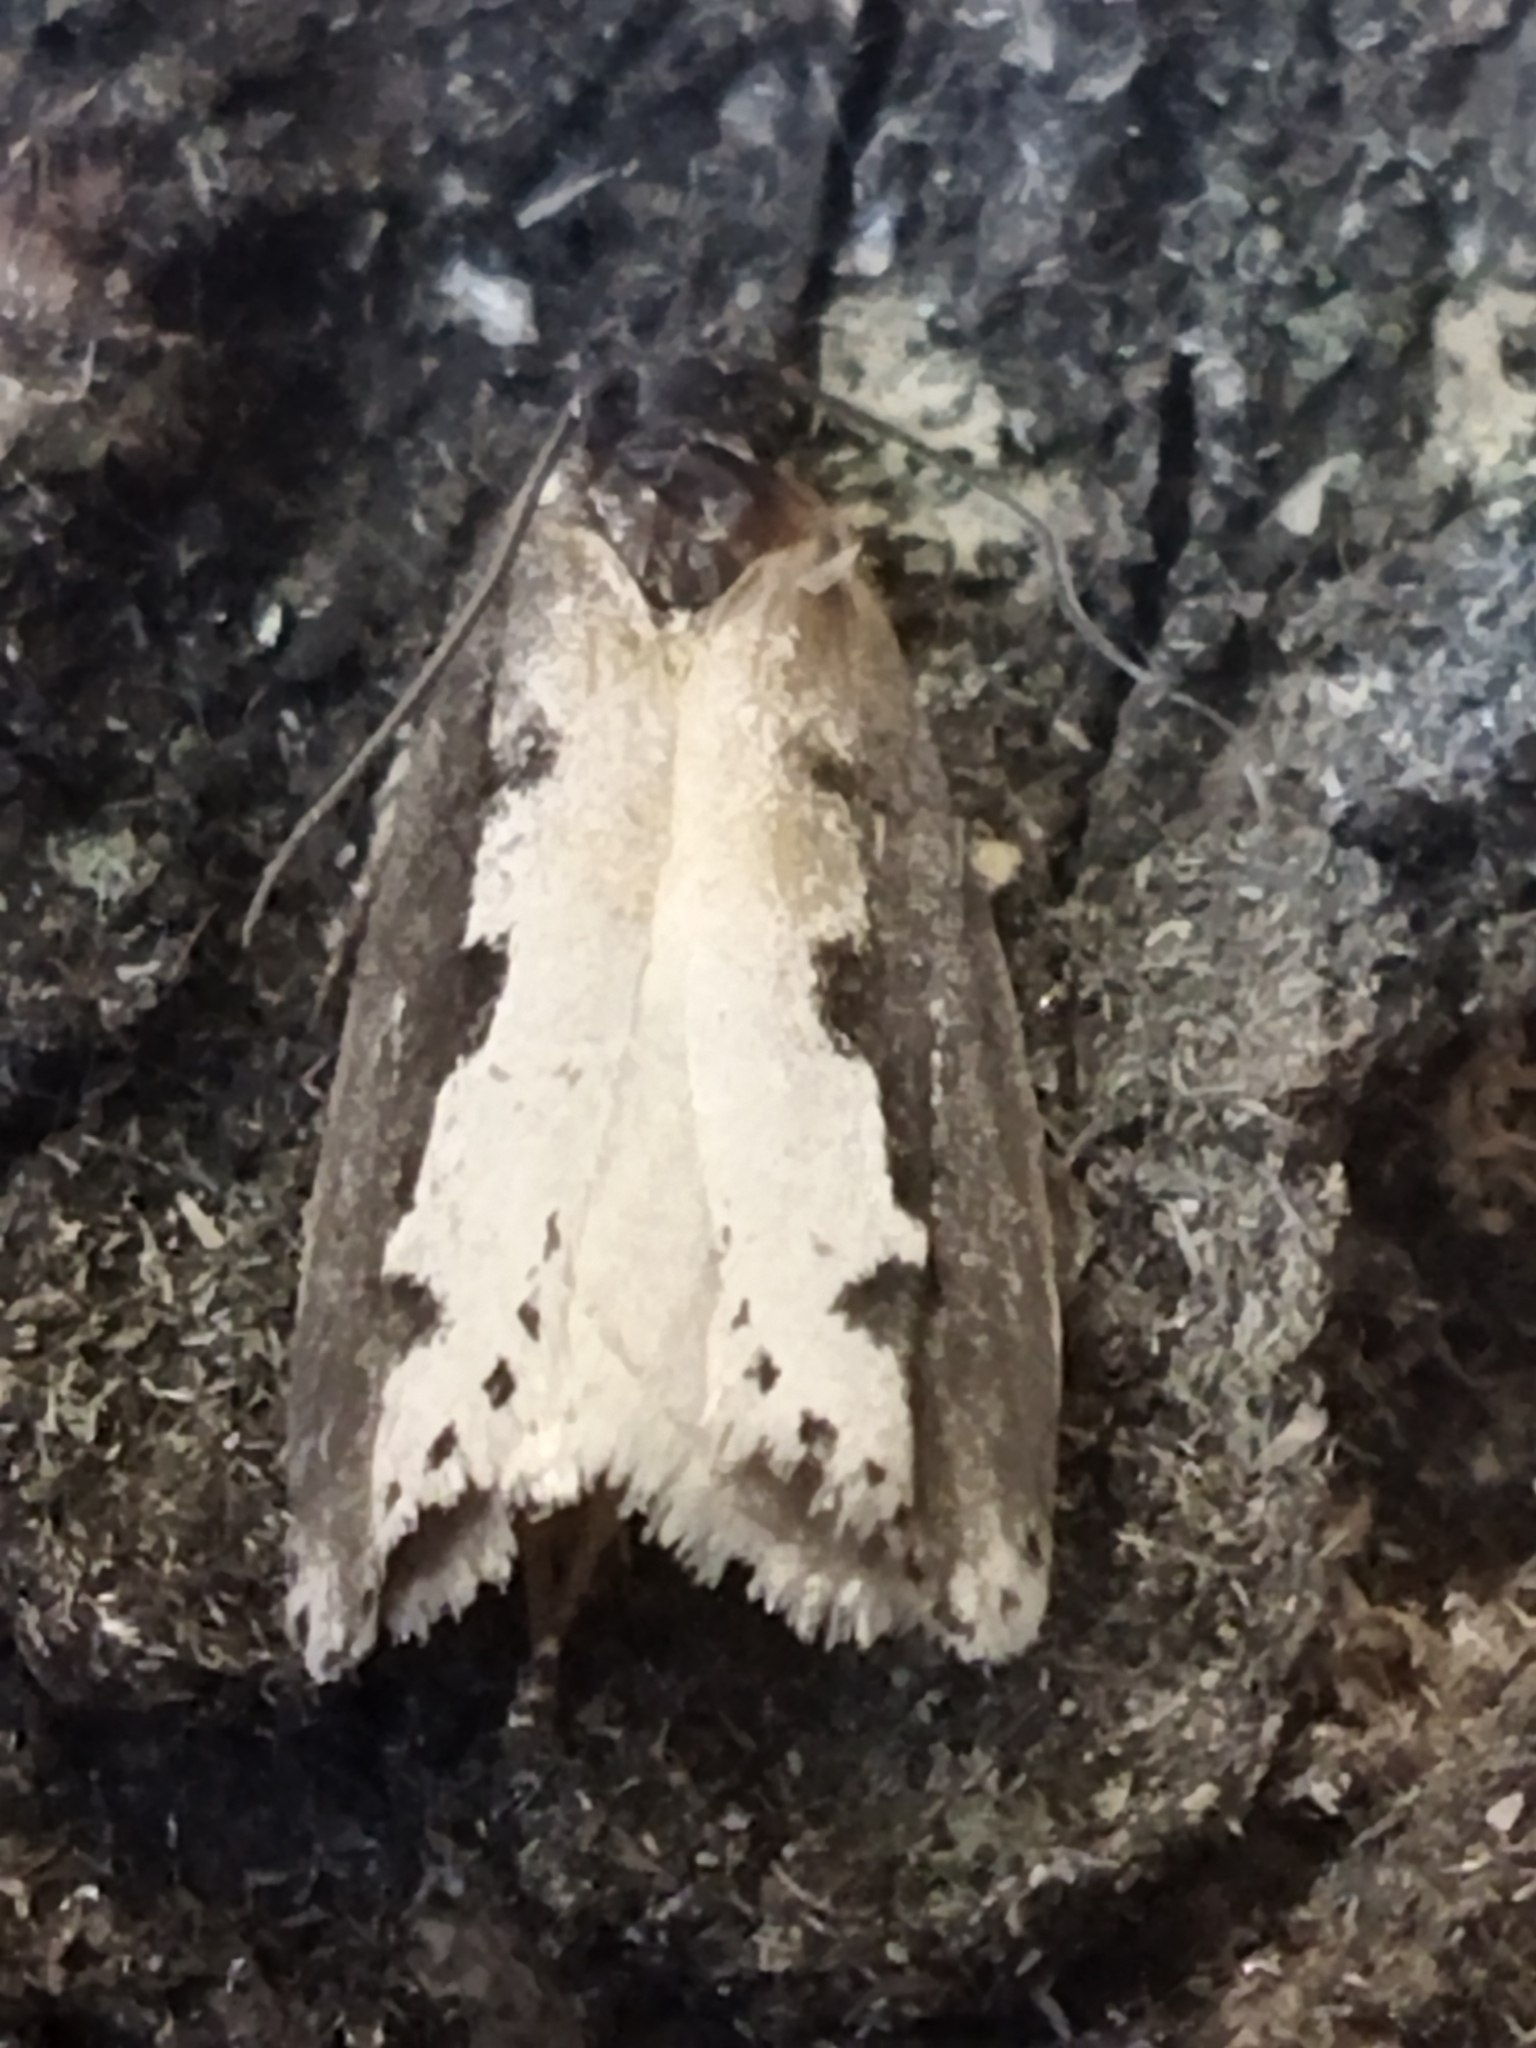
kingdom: Animalia
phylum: Arthropoda
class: Insecta
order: Lepidoptera
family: Ethmiidae
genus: Ethmia
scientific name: Ethmia bipunctella
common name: Bordered ermel
